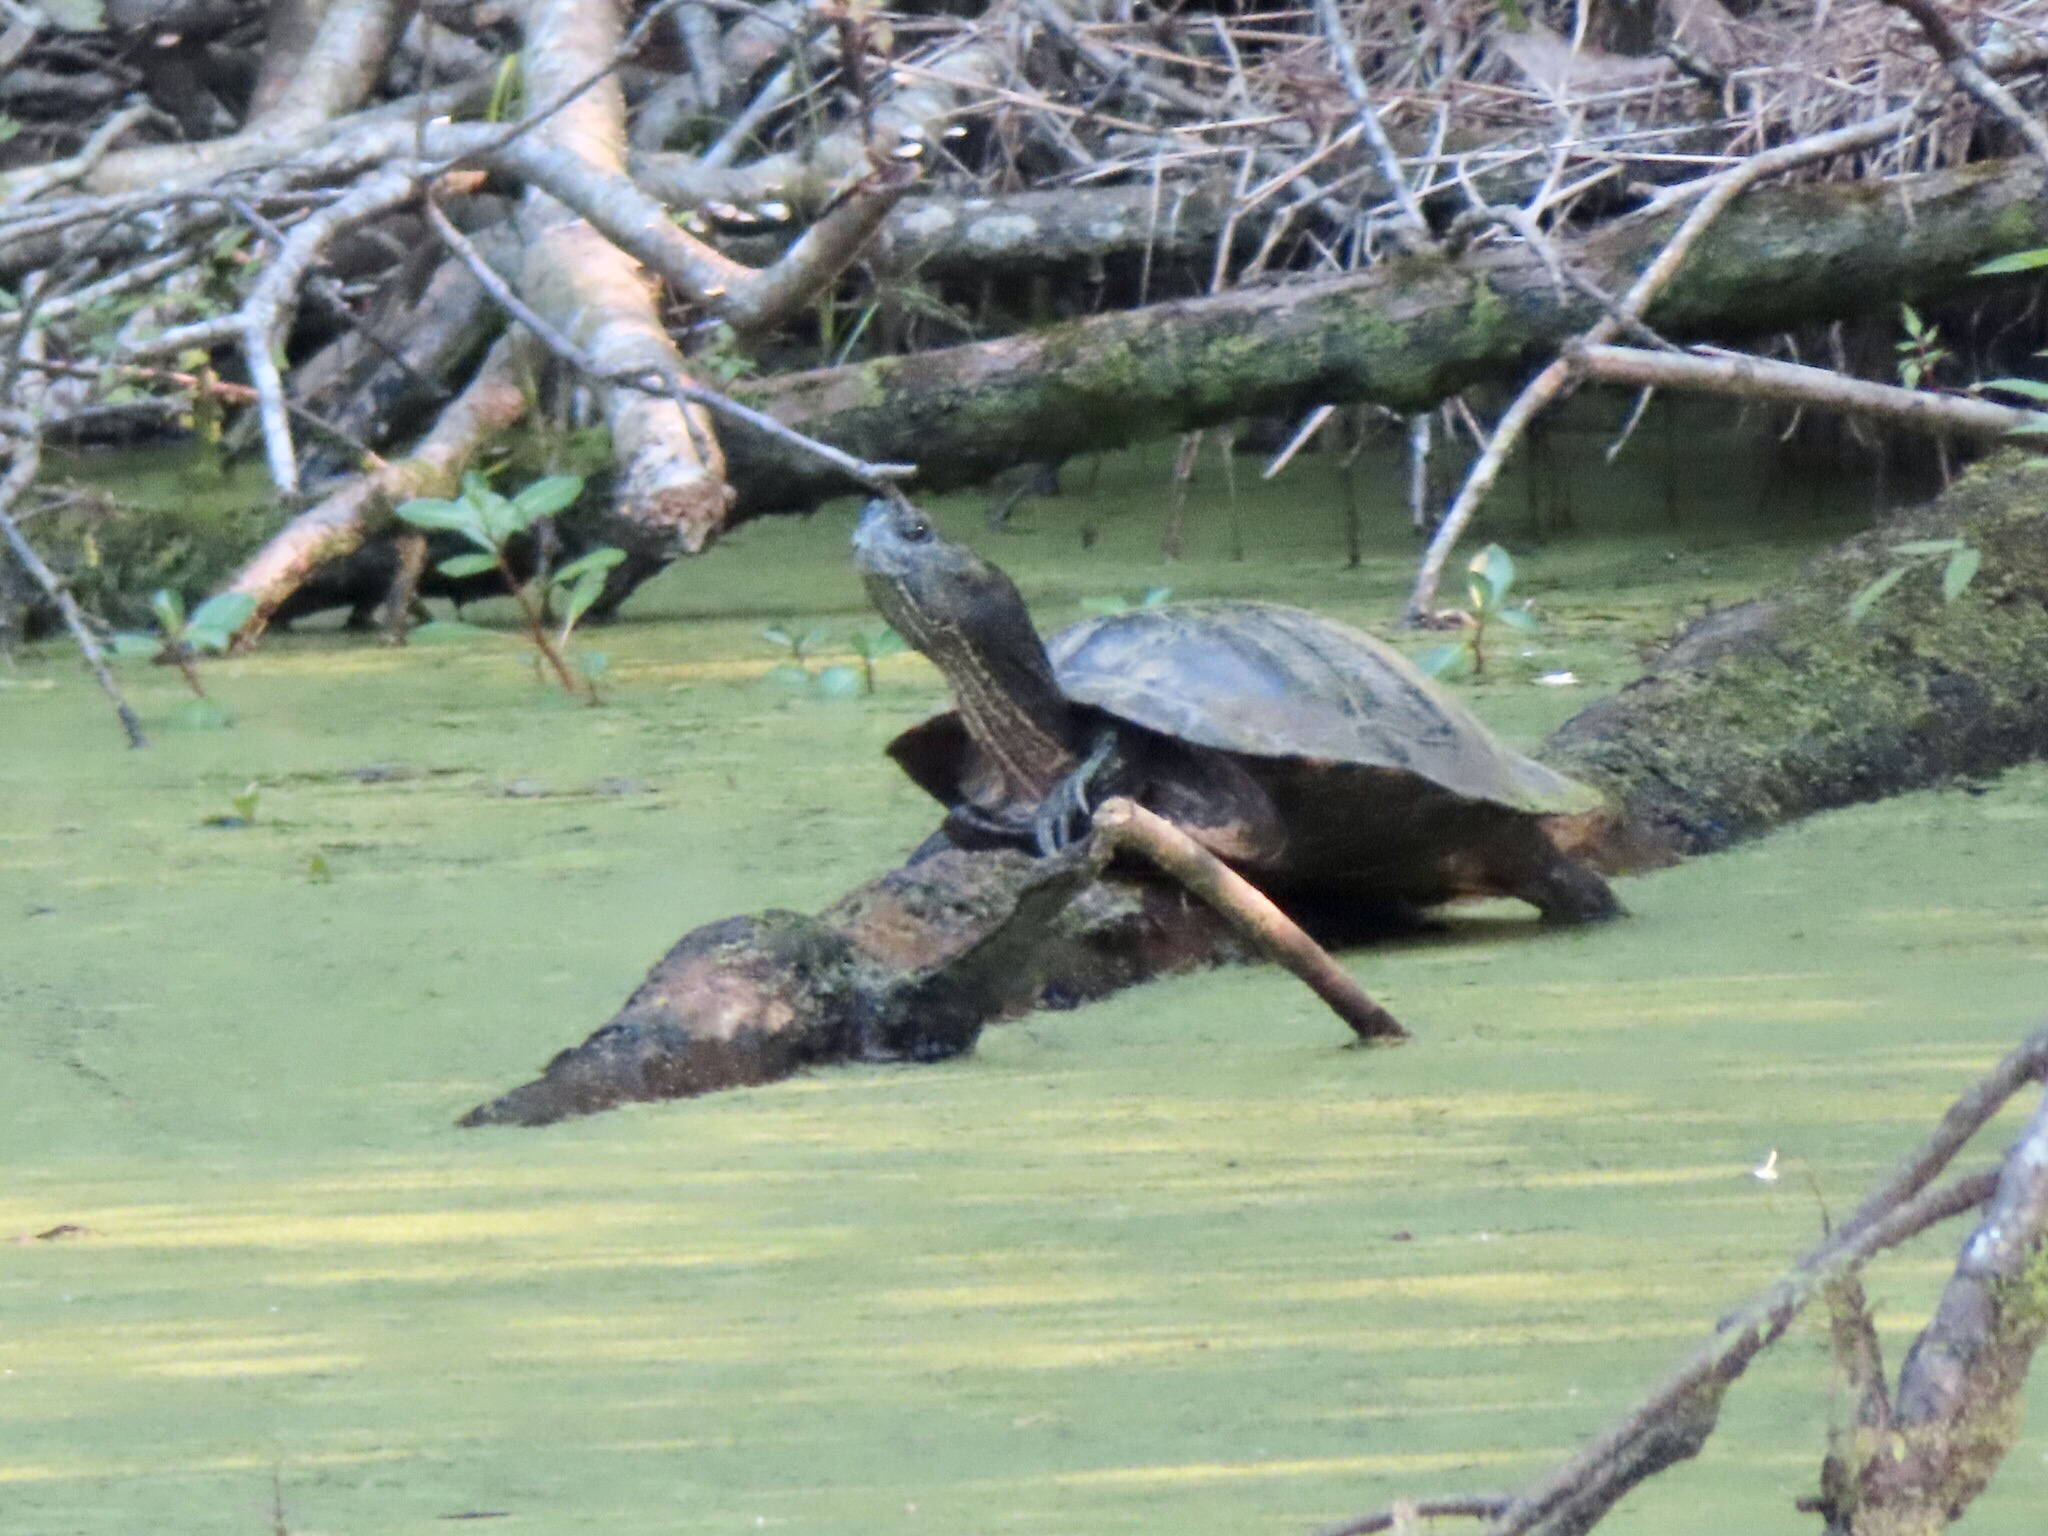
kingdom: Animalia
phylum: Chordata
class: Testudines
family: Emydidae
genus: Trachemys
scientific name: Trachemys scripta
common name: Slider
